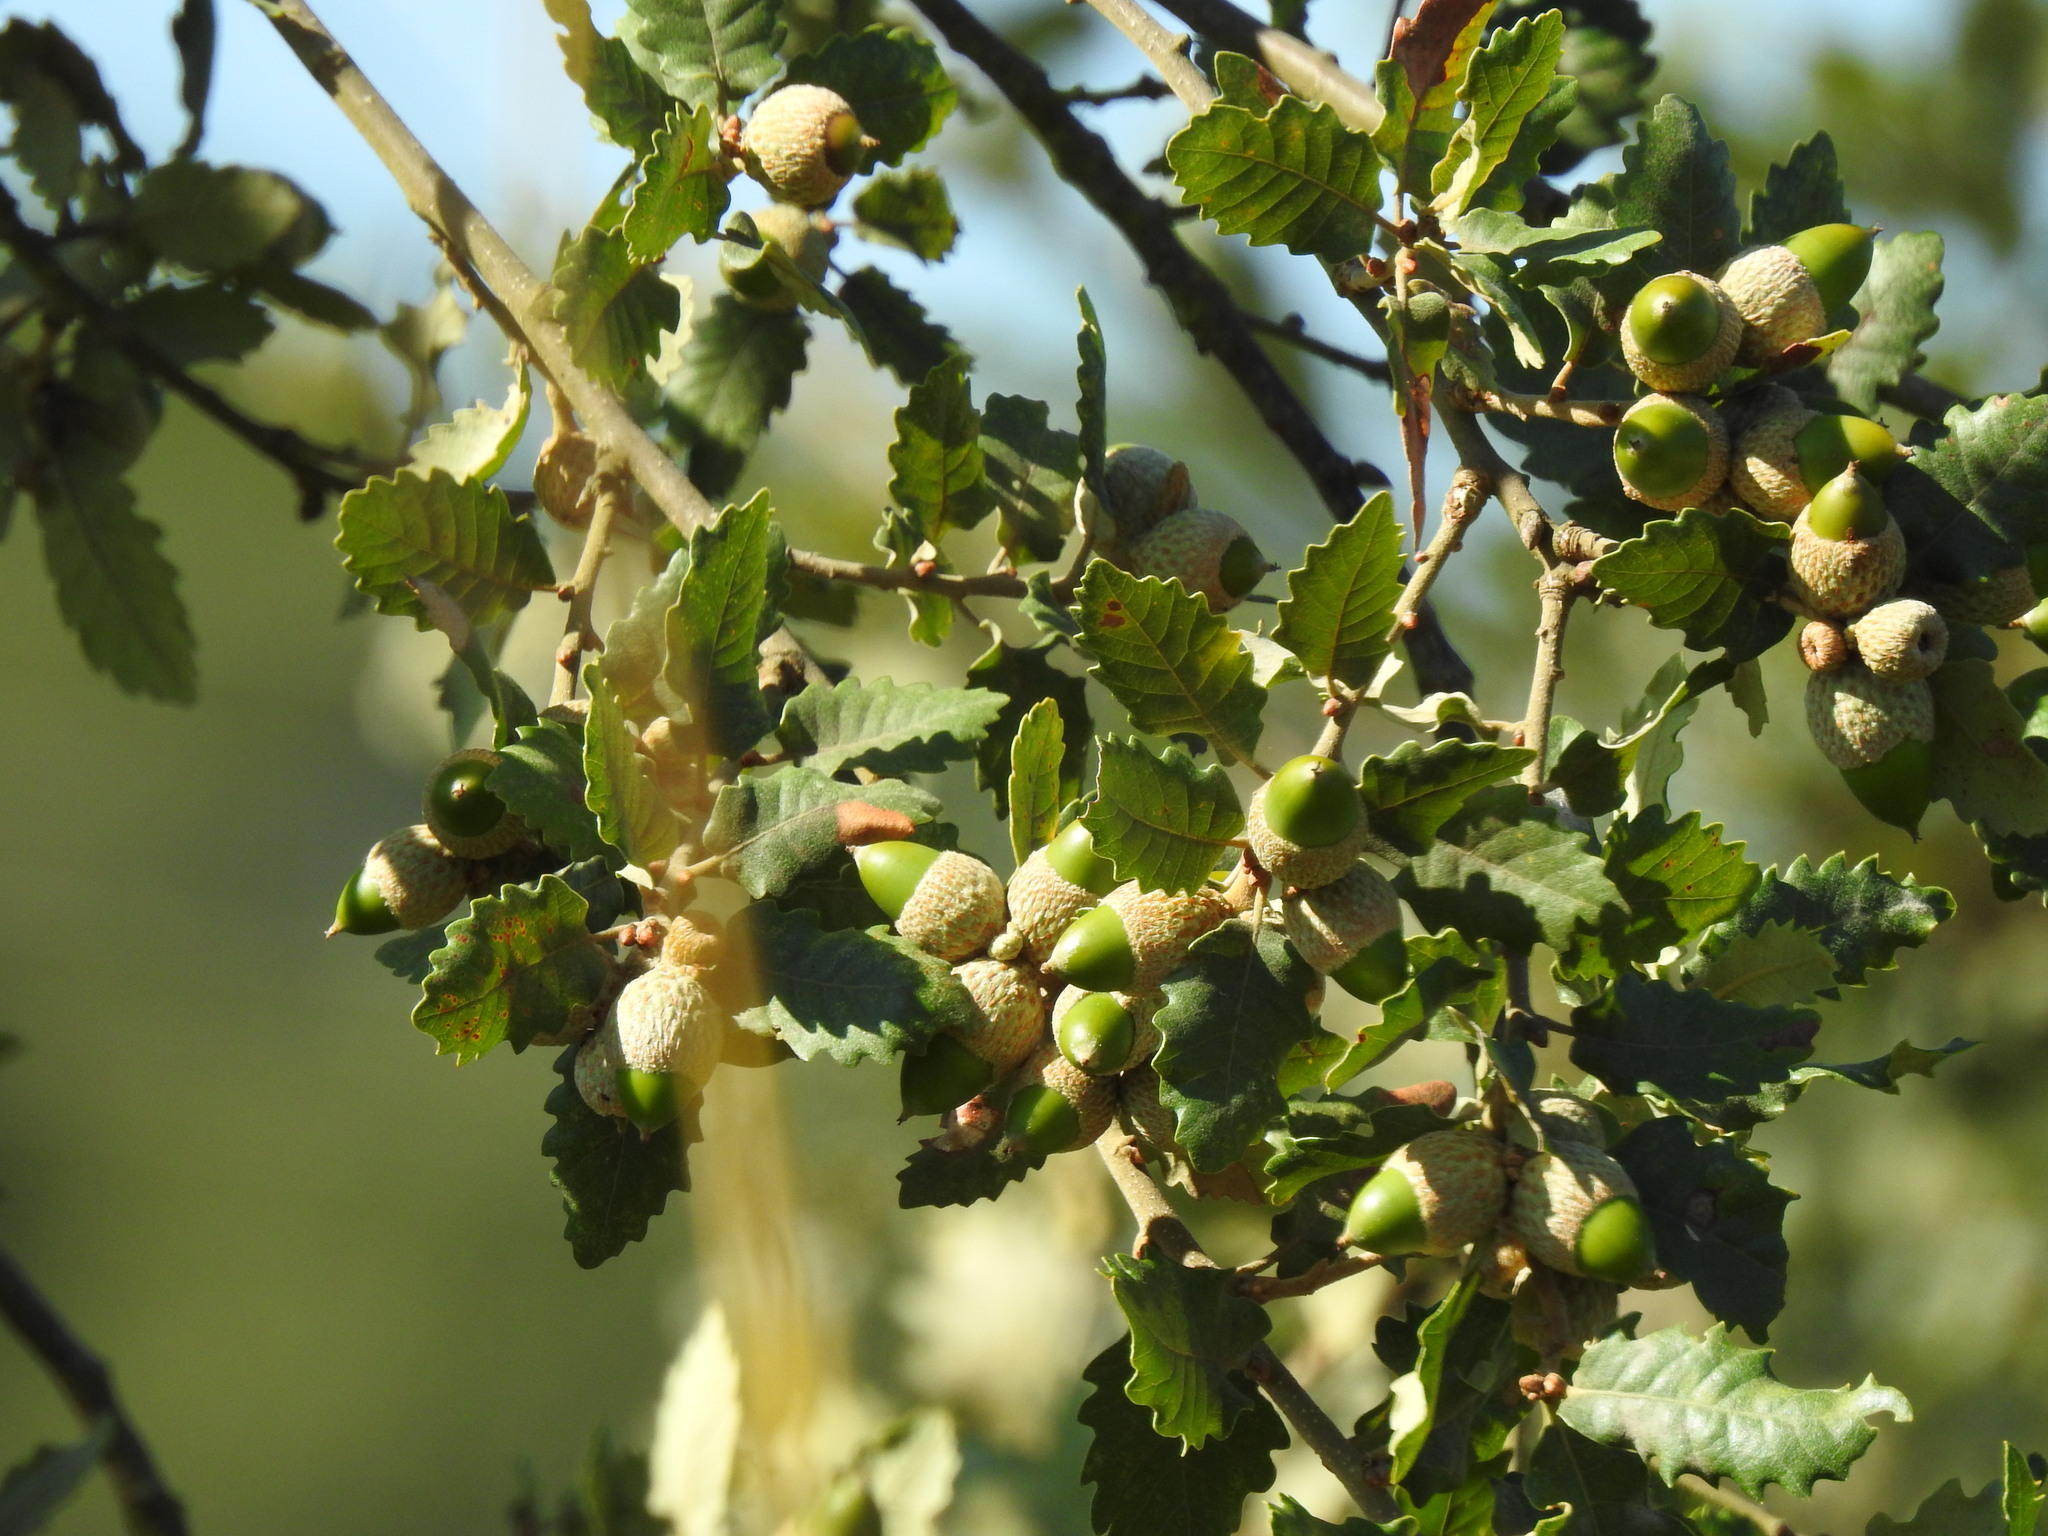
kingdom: Plantae
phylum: Tracheophyta
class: Magnoliopsida
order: Fagales
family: Fagaceae
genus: Quercus
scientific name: Quercus faginea
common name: Gall oak tree
